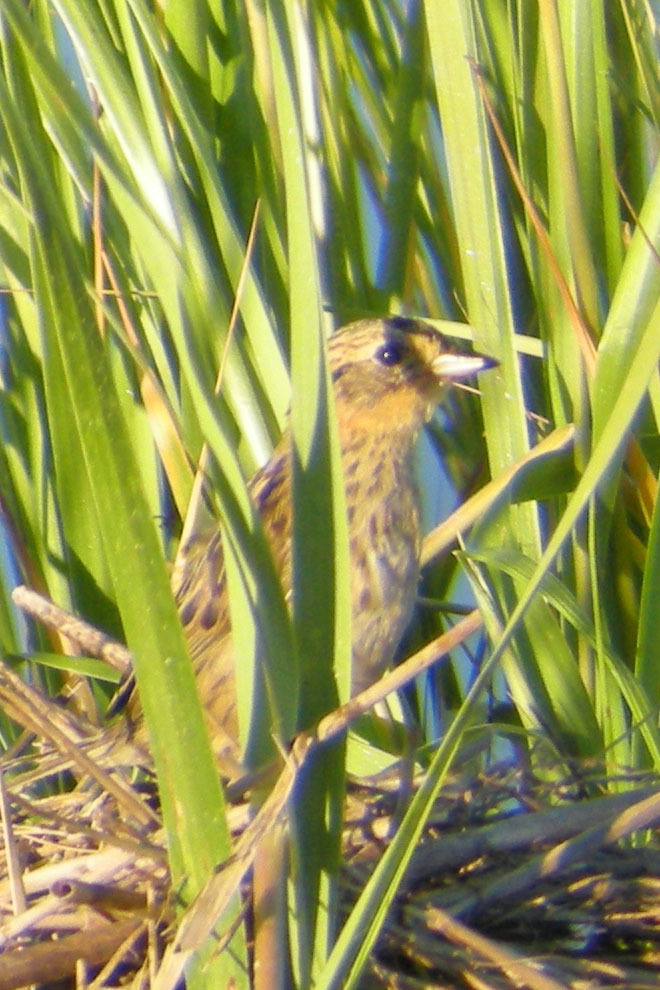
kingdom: Animalia
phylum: Chordata
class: Aves
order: Passeriformes
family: Passerellidae
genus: Ammospiza
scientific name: Ammospiza caudacuta
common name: Saltmarsh sparrow
